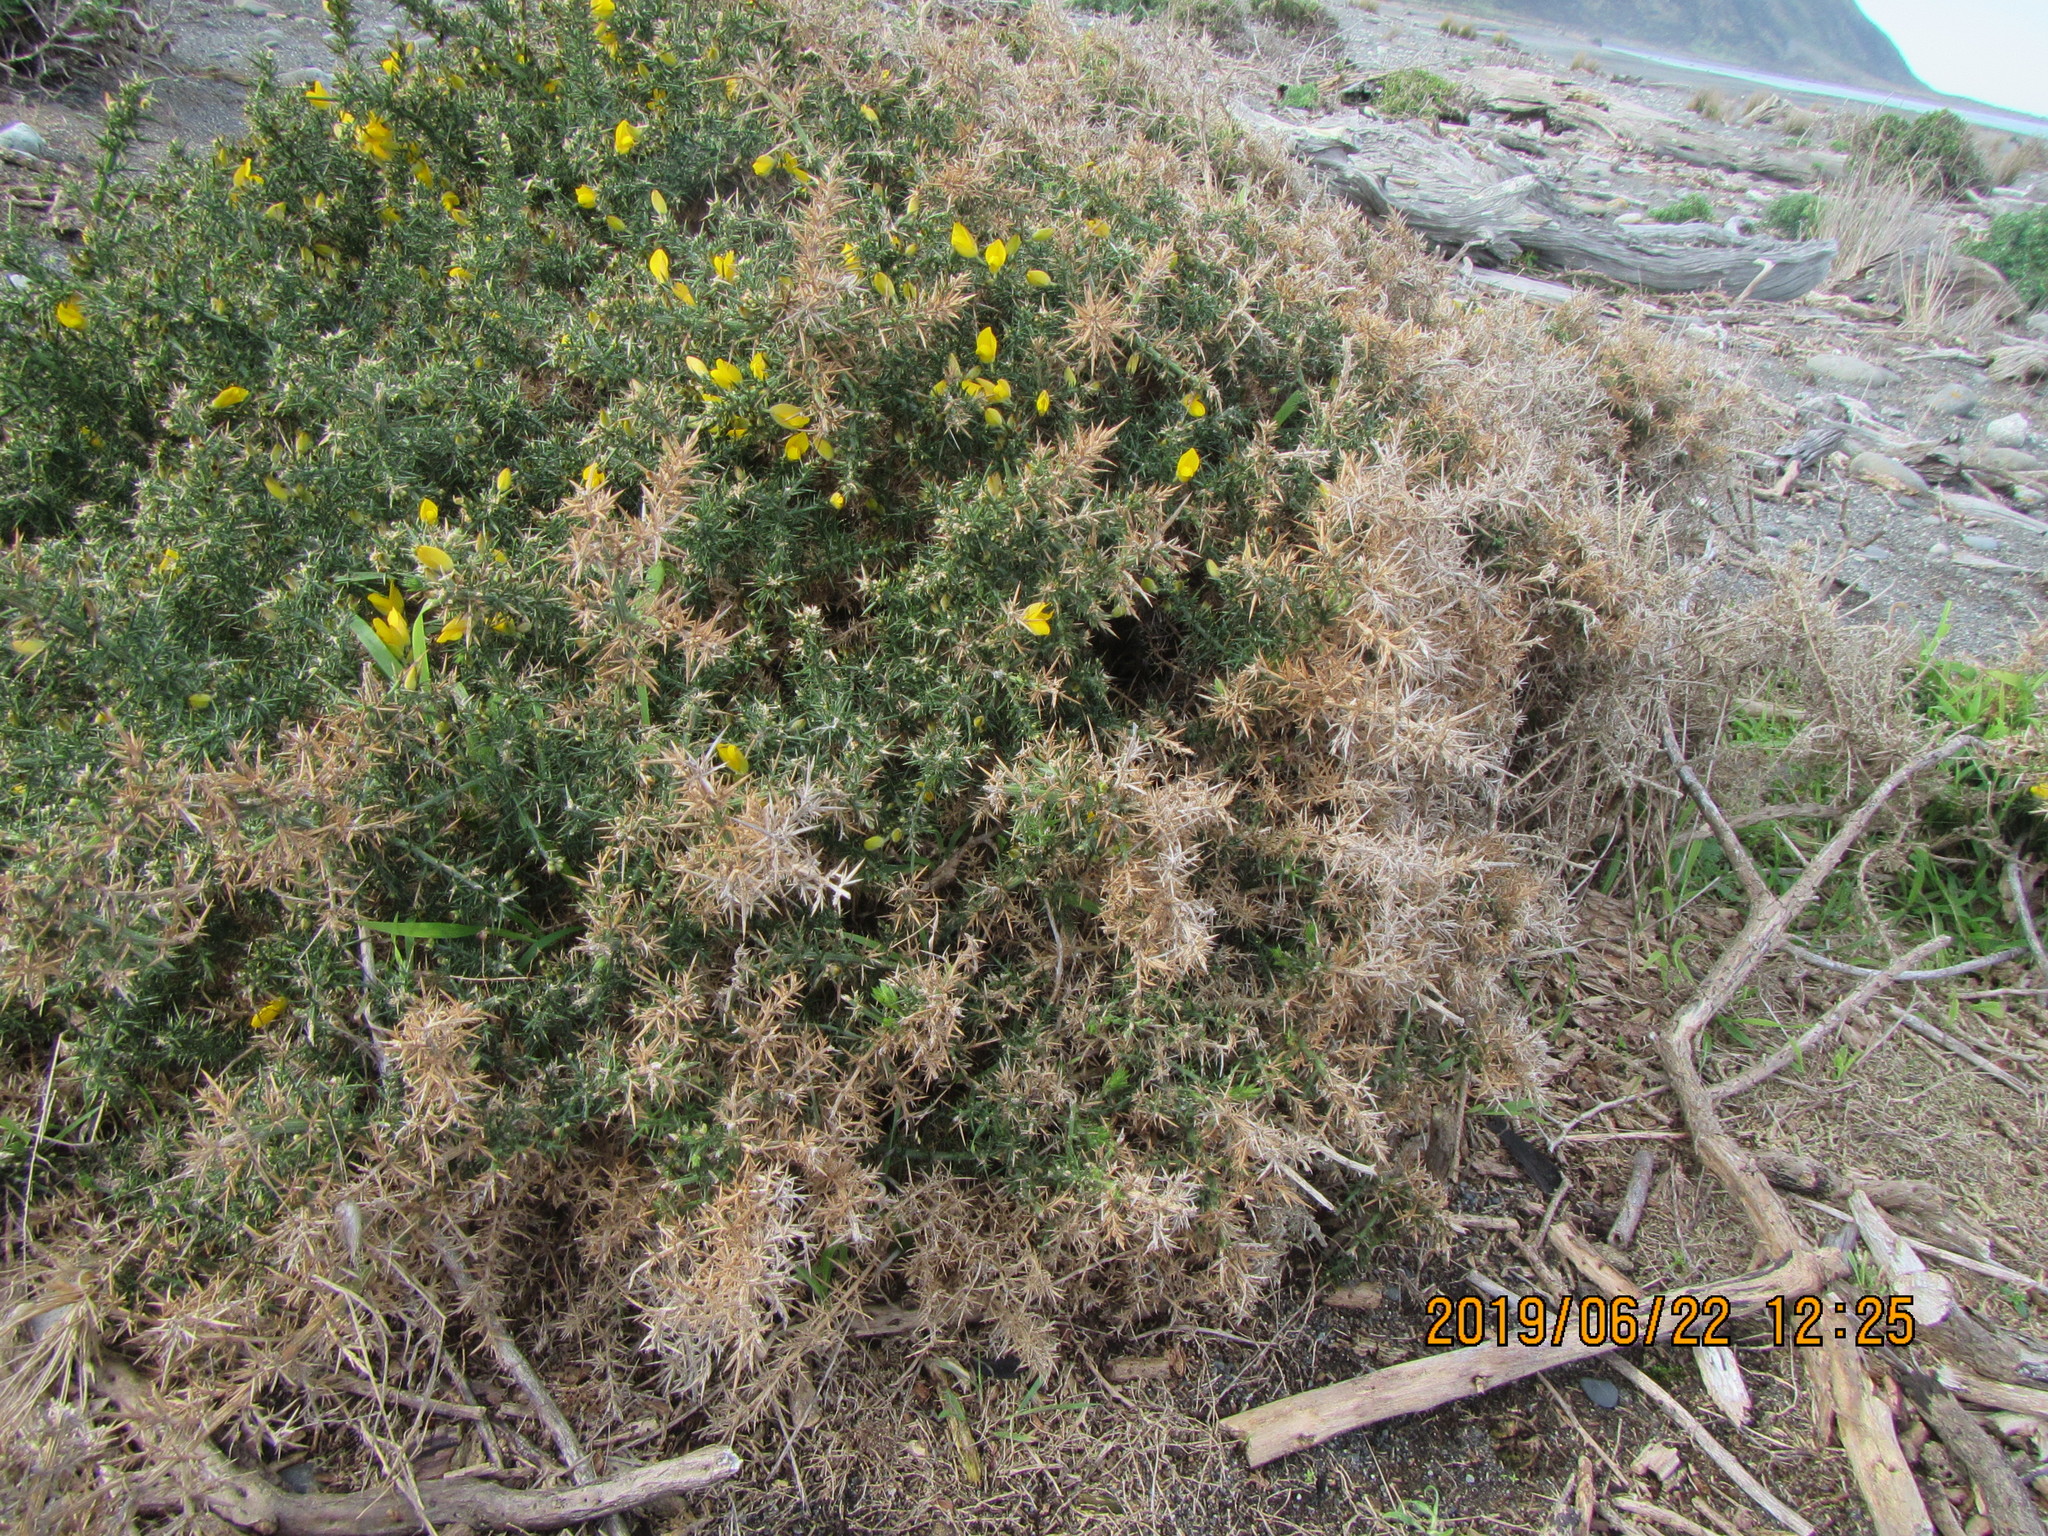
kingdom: Plantae
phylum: Tracheophyta
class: Magnoliopsida
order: Fabales
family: Fabaceae
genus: Ulex
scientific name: Ulex europaeus
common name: Common gorse
